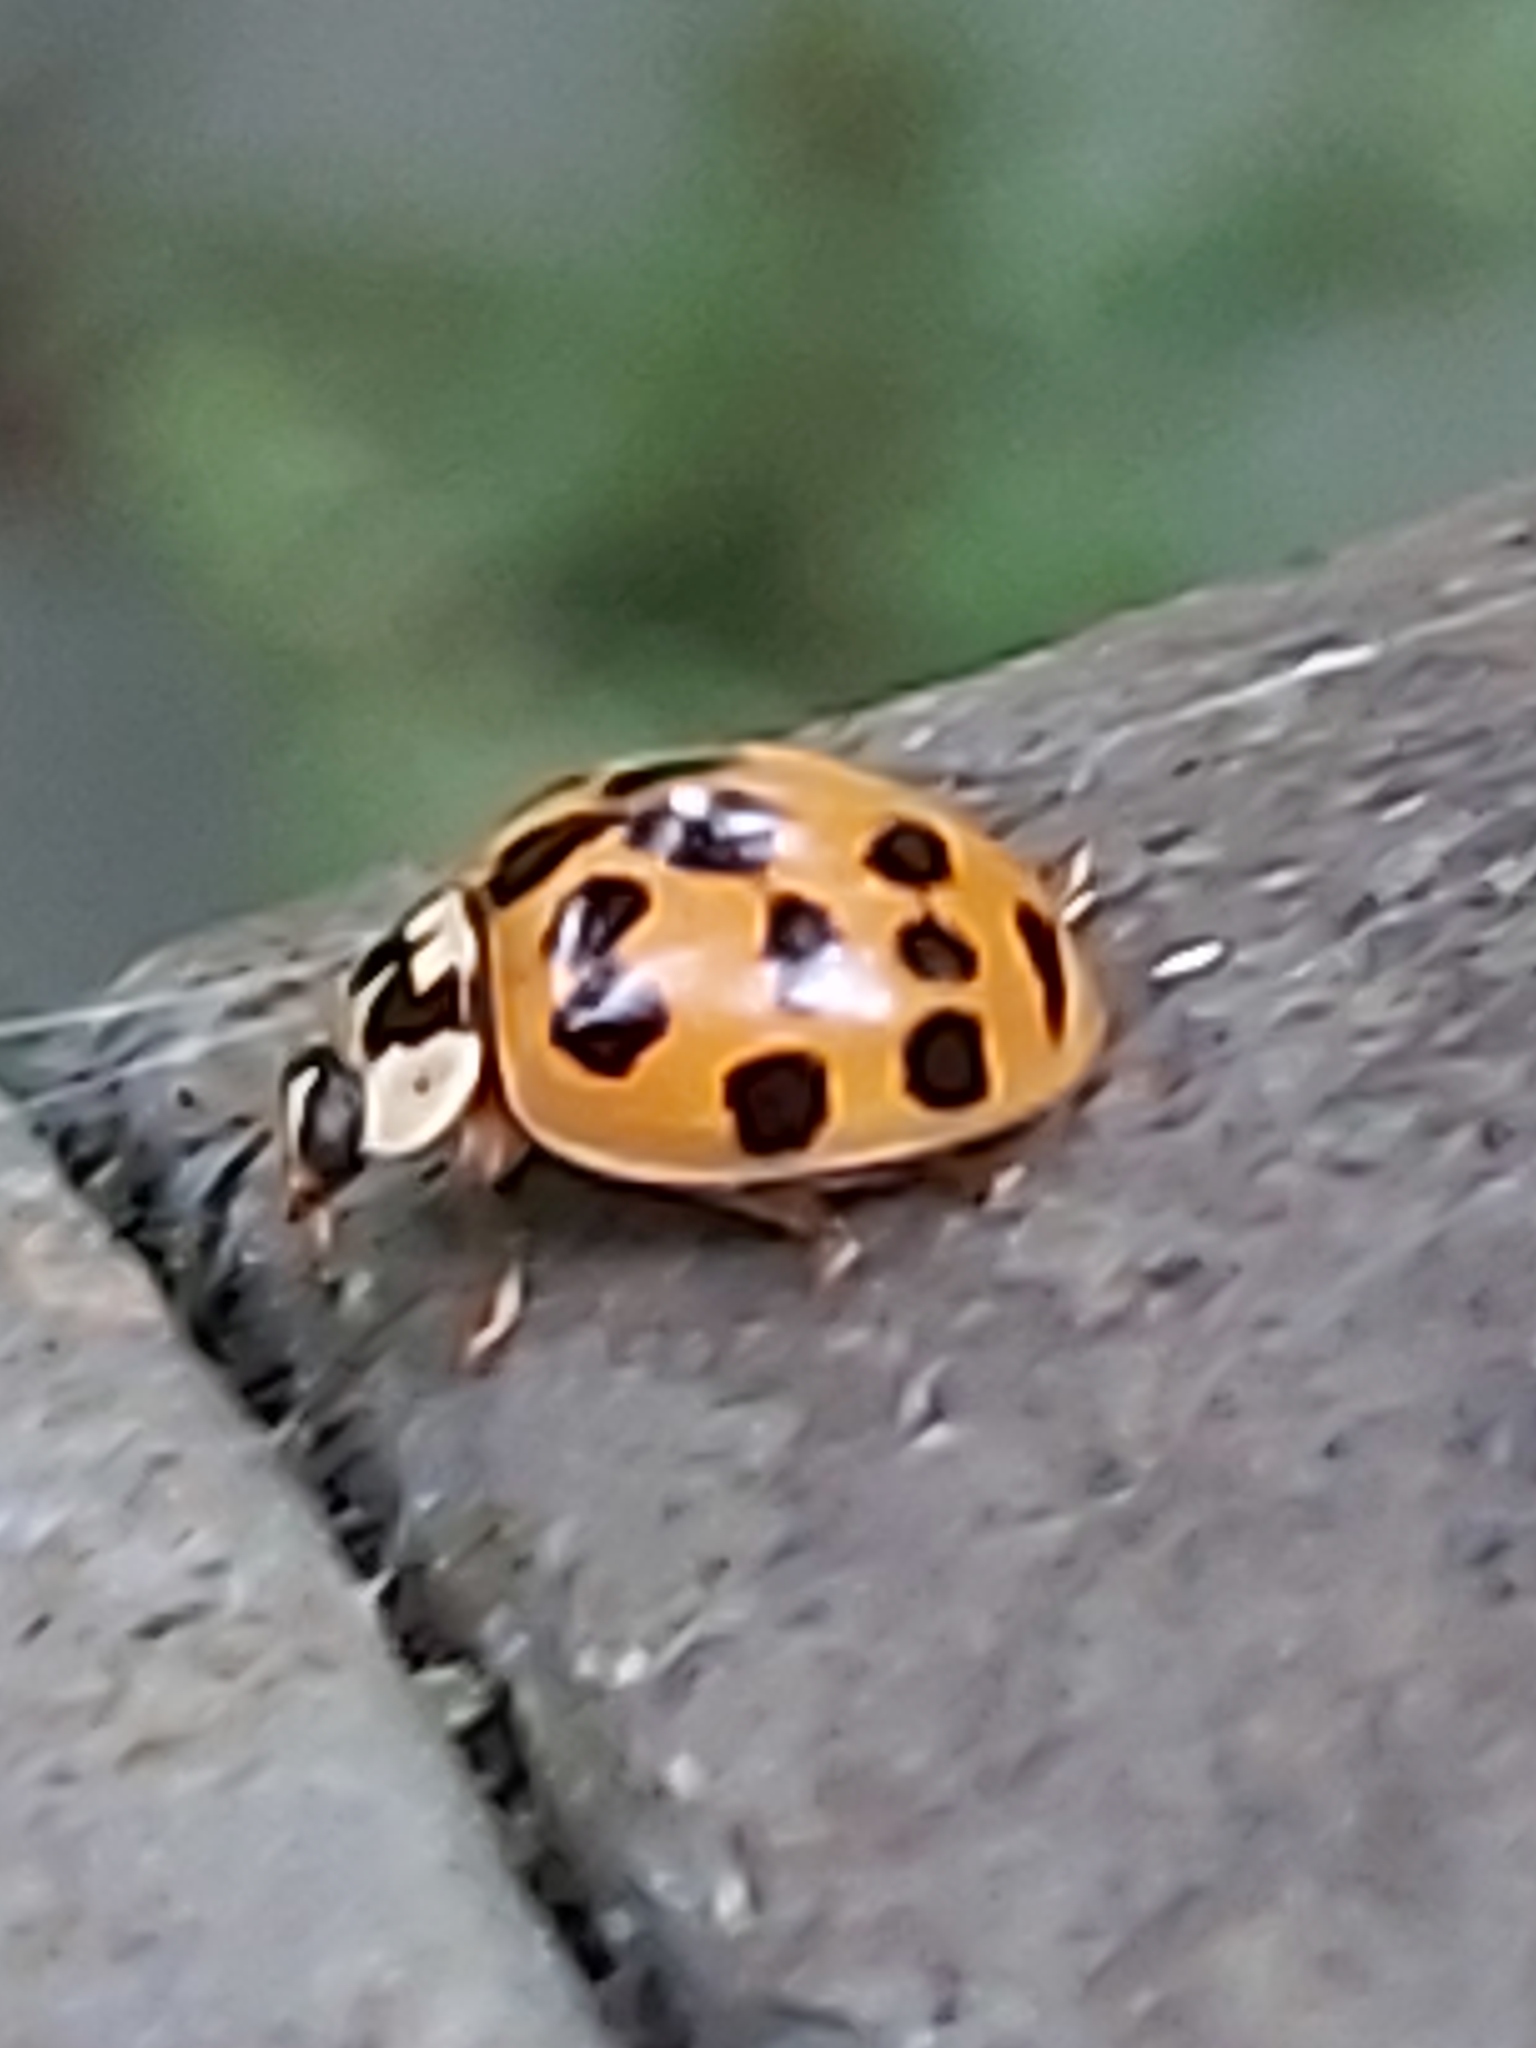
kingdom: Animalia
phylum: Arthropoda
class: Insecta
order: Coleoptera
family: Coccinellidae
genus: Harmonia
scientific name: Harmonia axyridis
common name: Harlequin ladybird
